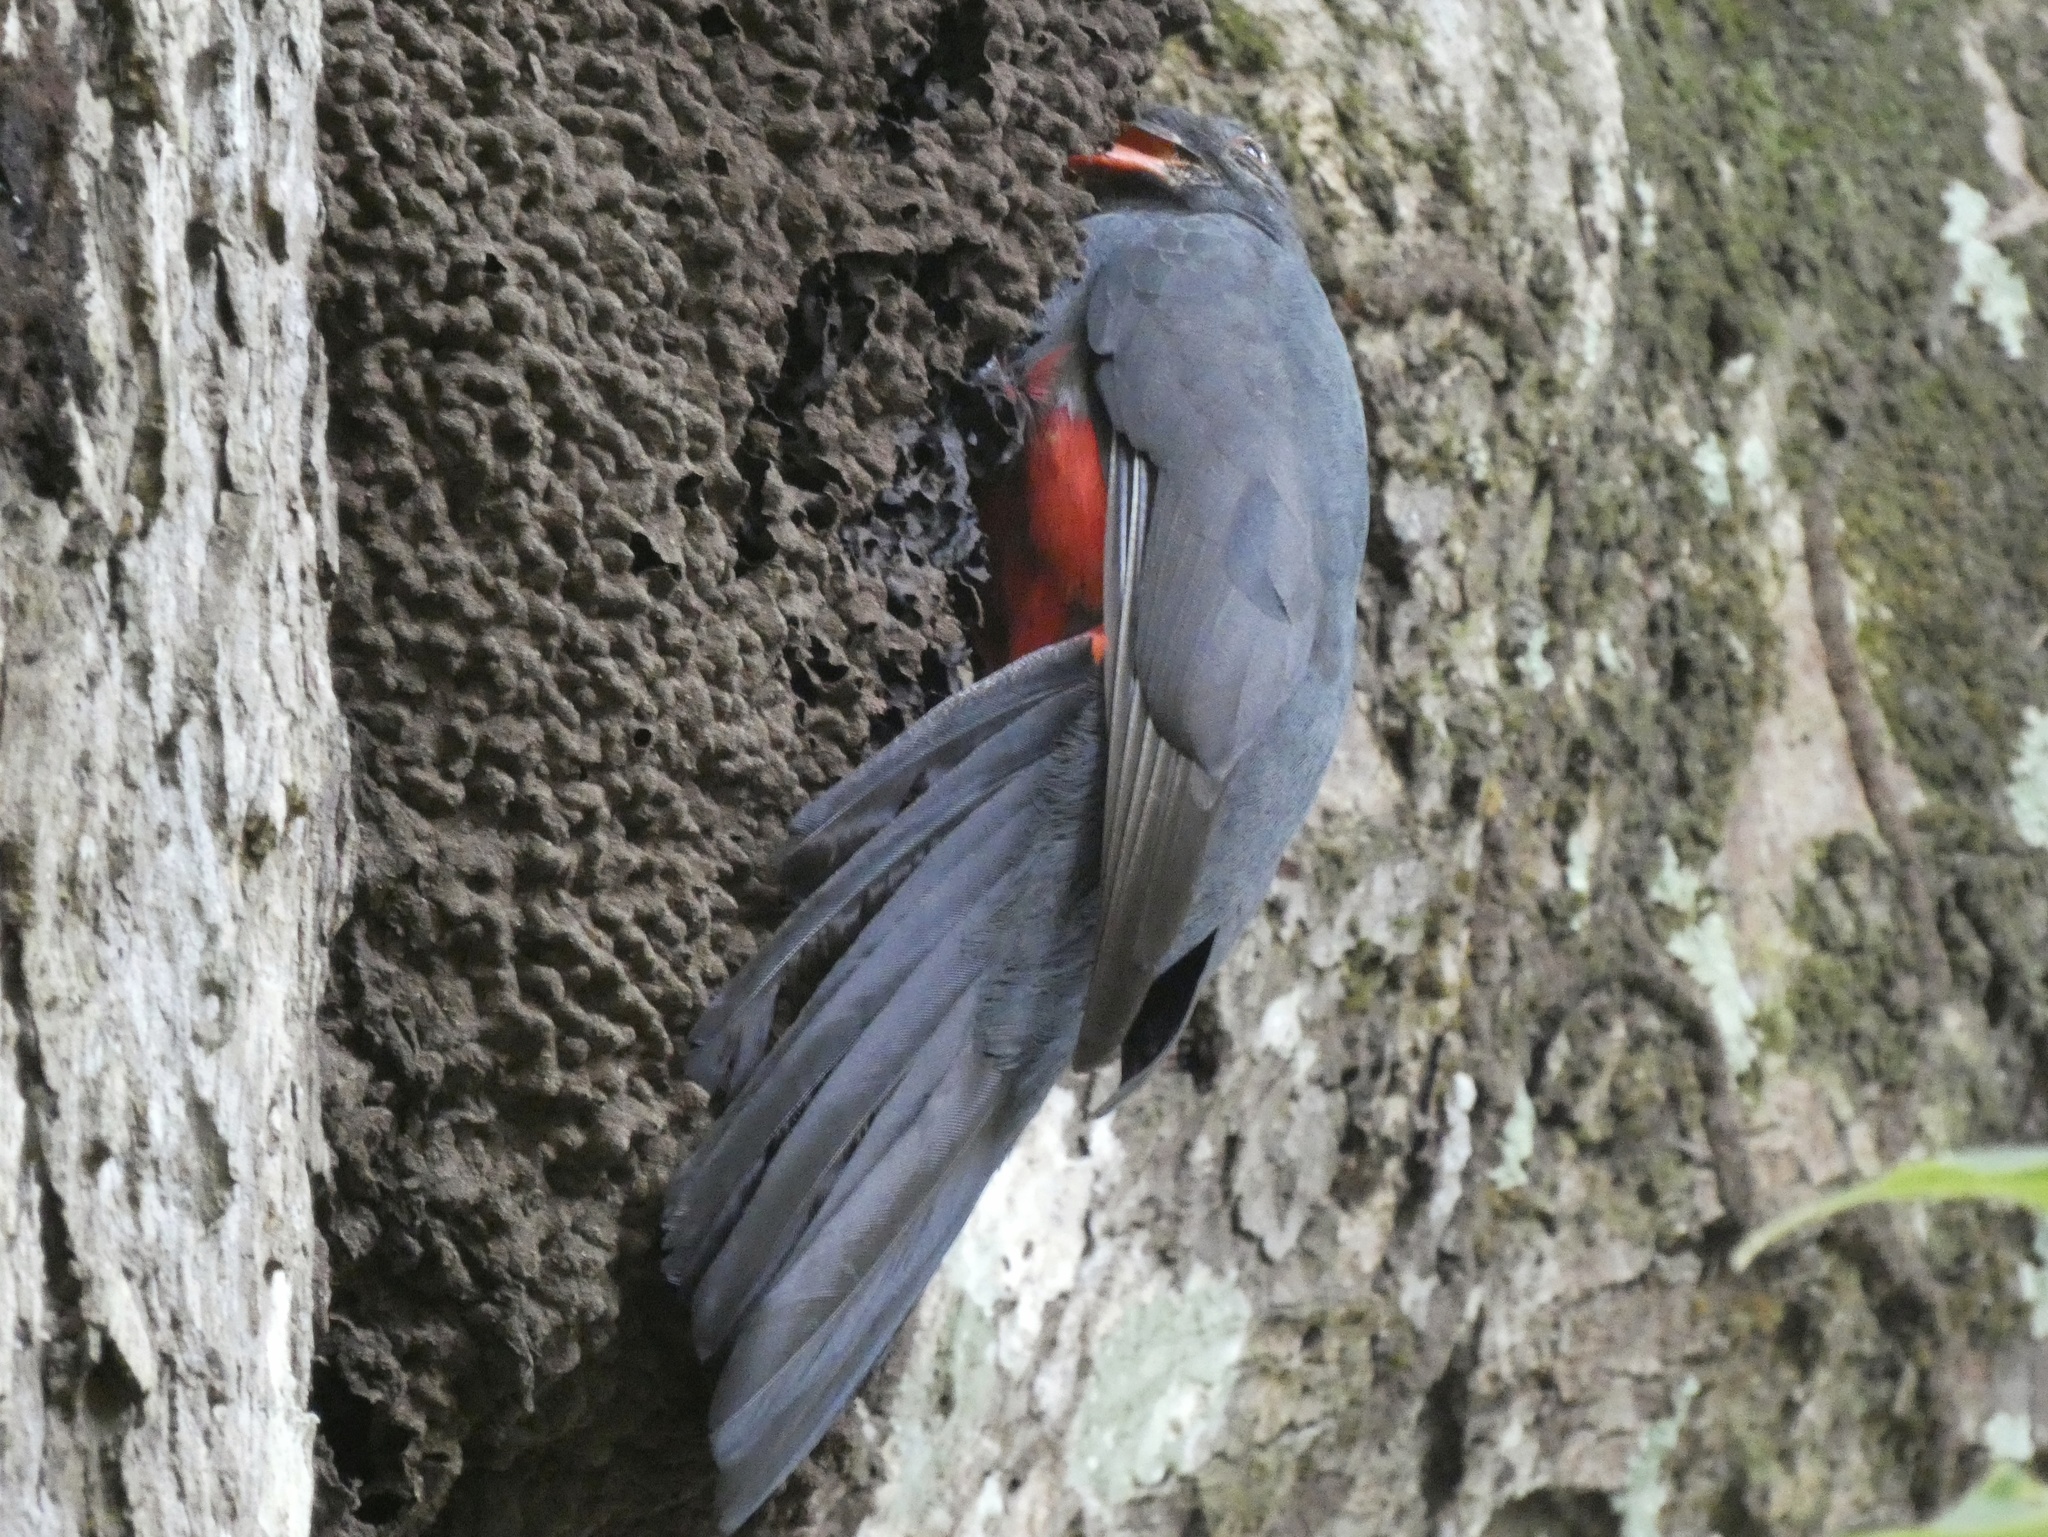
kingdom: Animalia
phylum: Chordata
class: Aves
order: Trogoniformes
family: Trogonidae
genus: Trogon
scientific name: Trogon massena
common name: Slaty-tailed trogon
